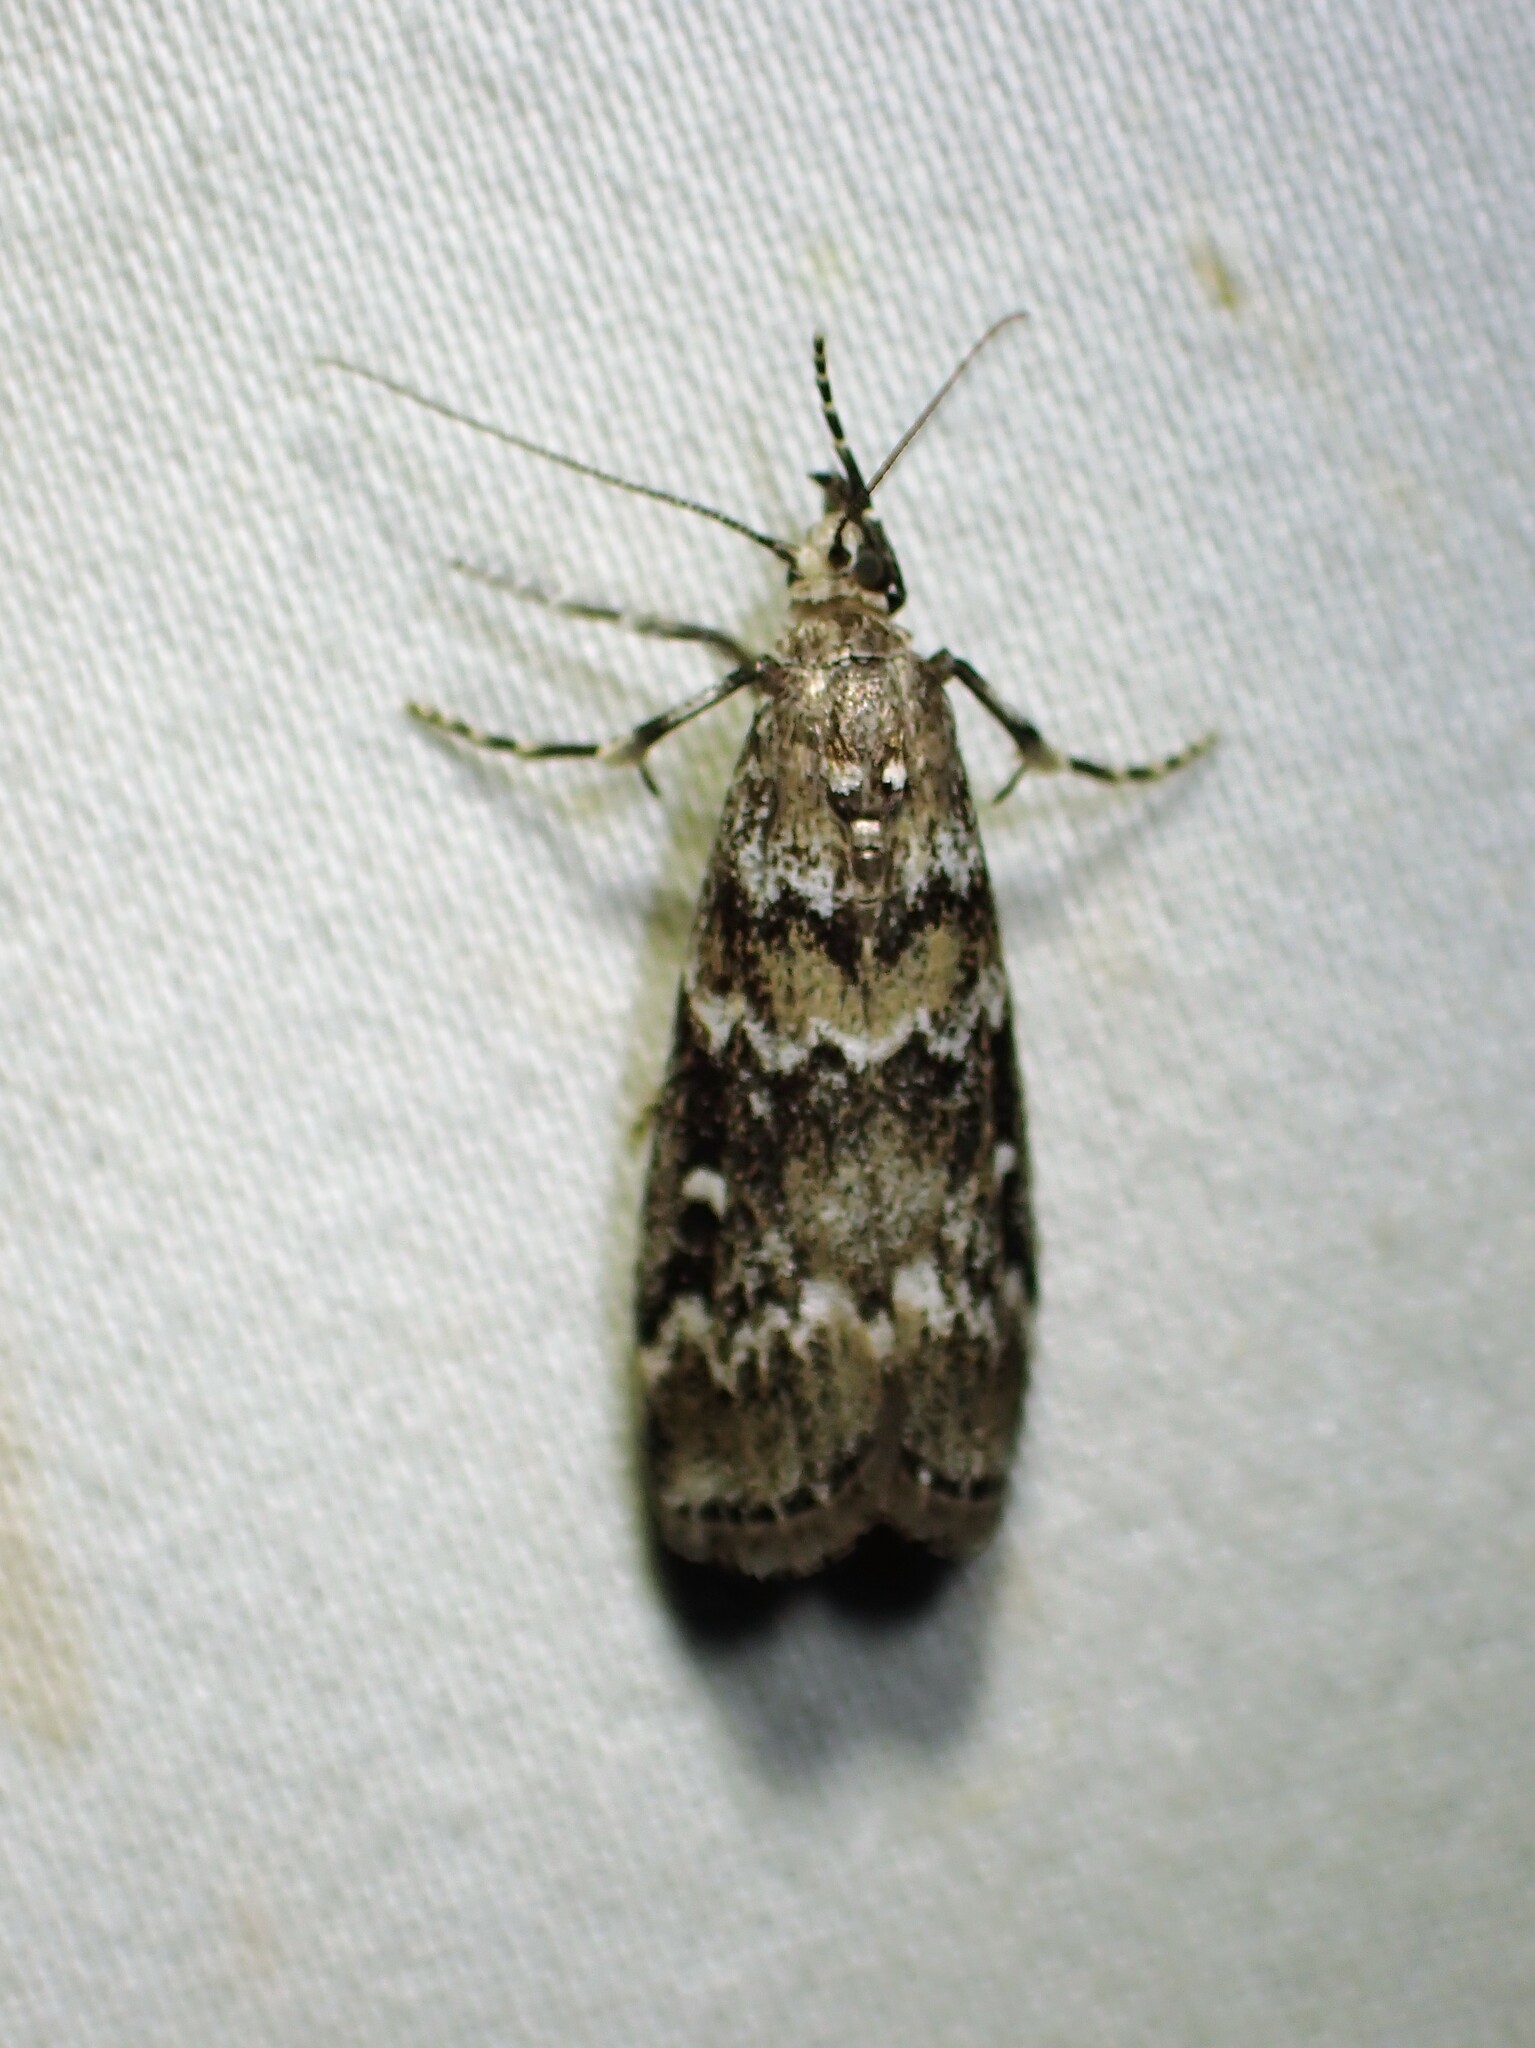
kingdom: Animalia
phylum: Arthropoda
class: Insecta
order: Lepidoptera
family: Pyralidae
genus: Dioryctria
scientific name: Dioryctria reniculelloides
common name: Spruce coneworm moth
